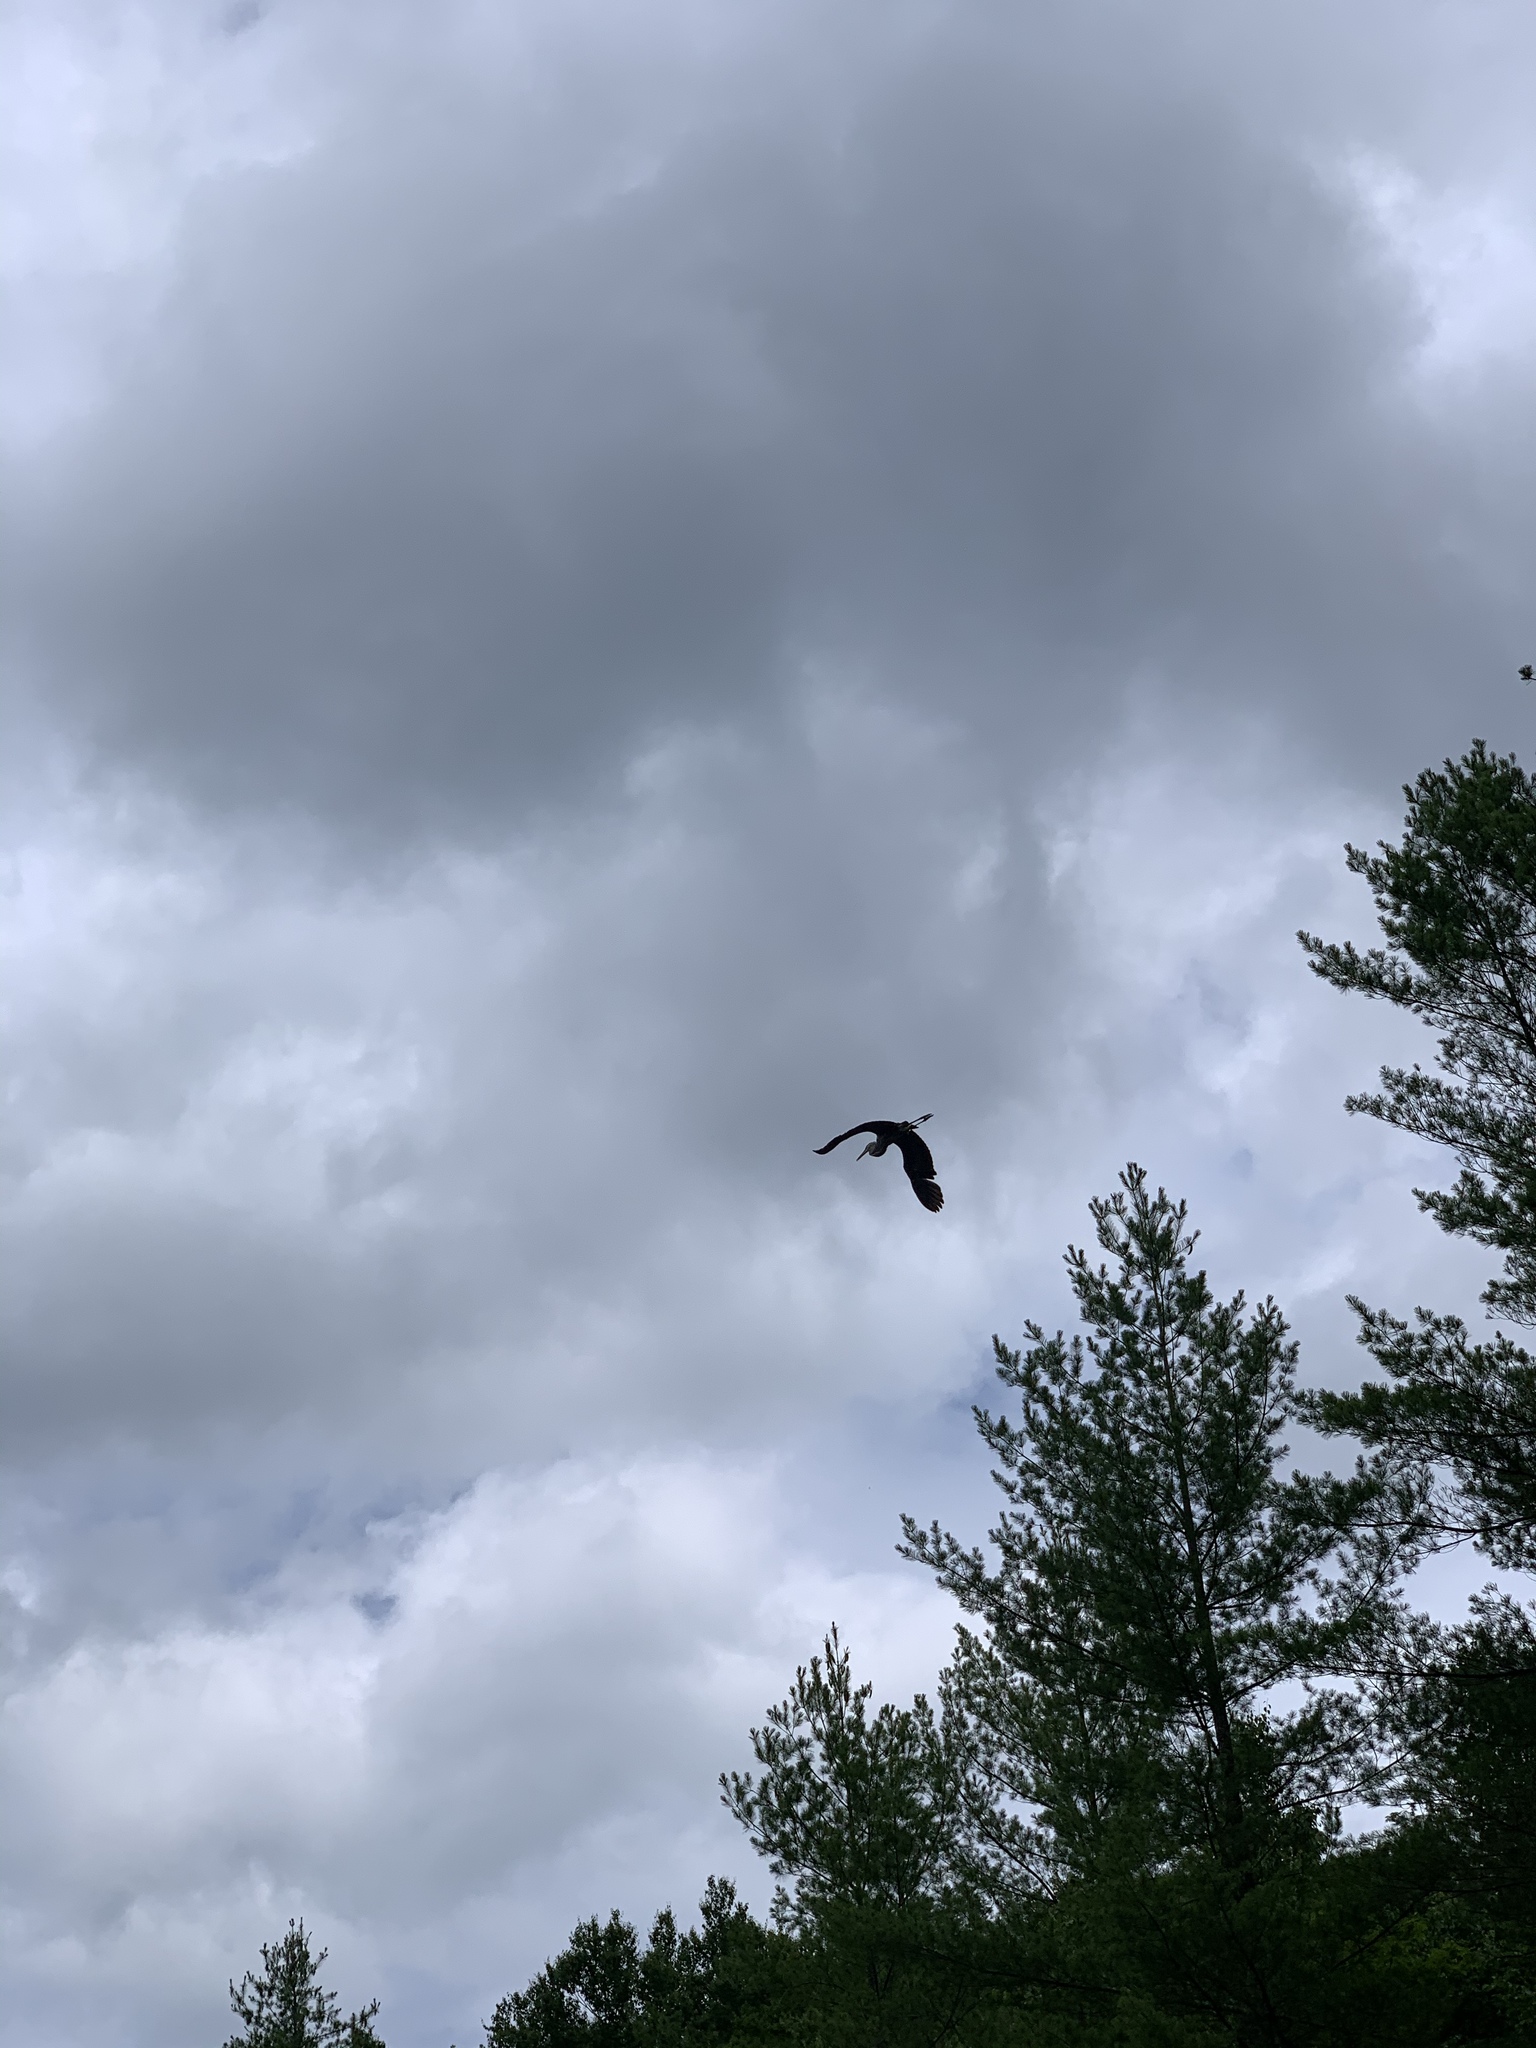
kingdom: Animalia
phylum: Chordata
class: Aves
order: Pelecaniformes
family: Ardeidae
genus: Ardea
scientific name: Ardea herodias
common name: Great blue heron
